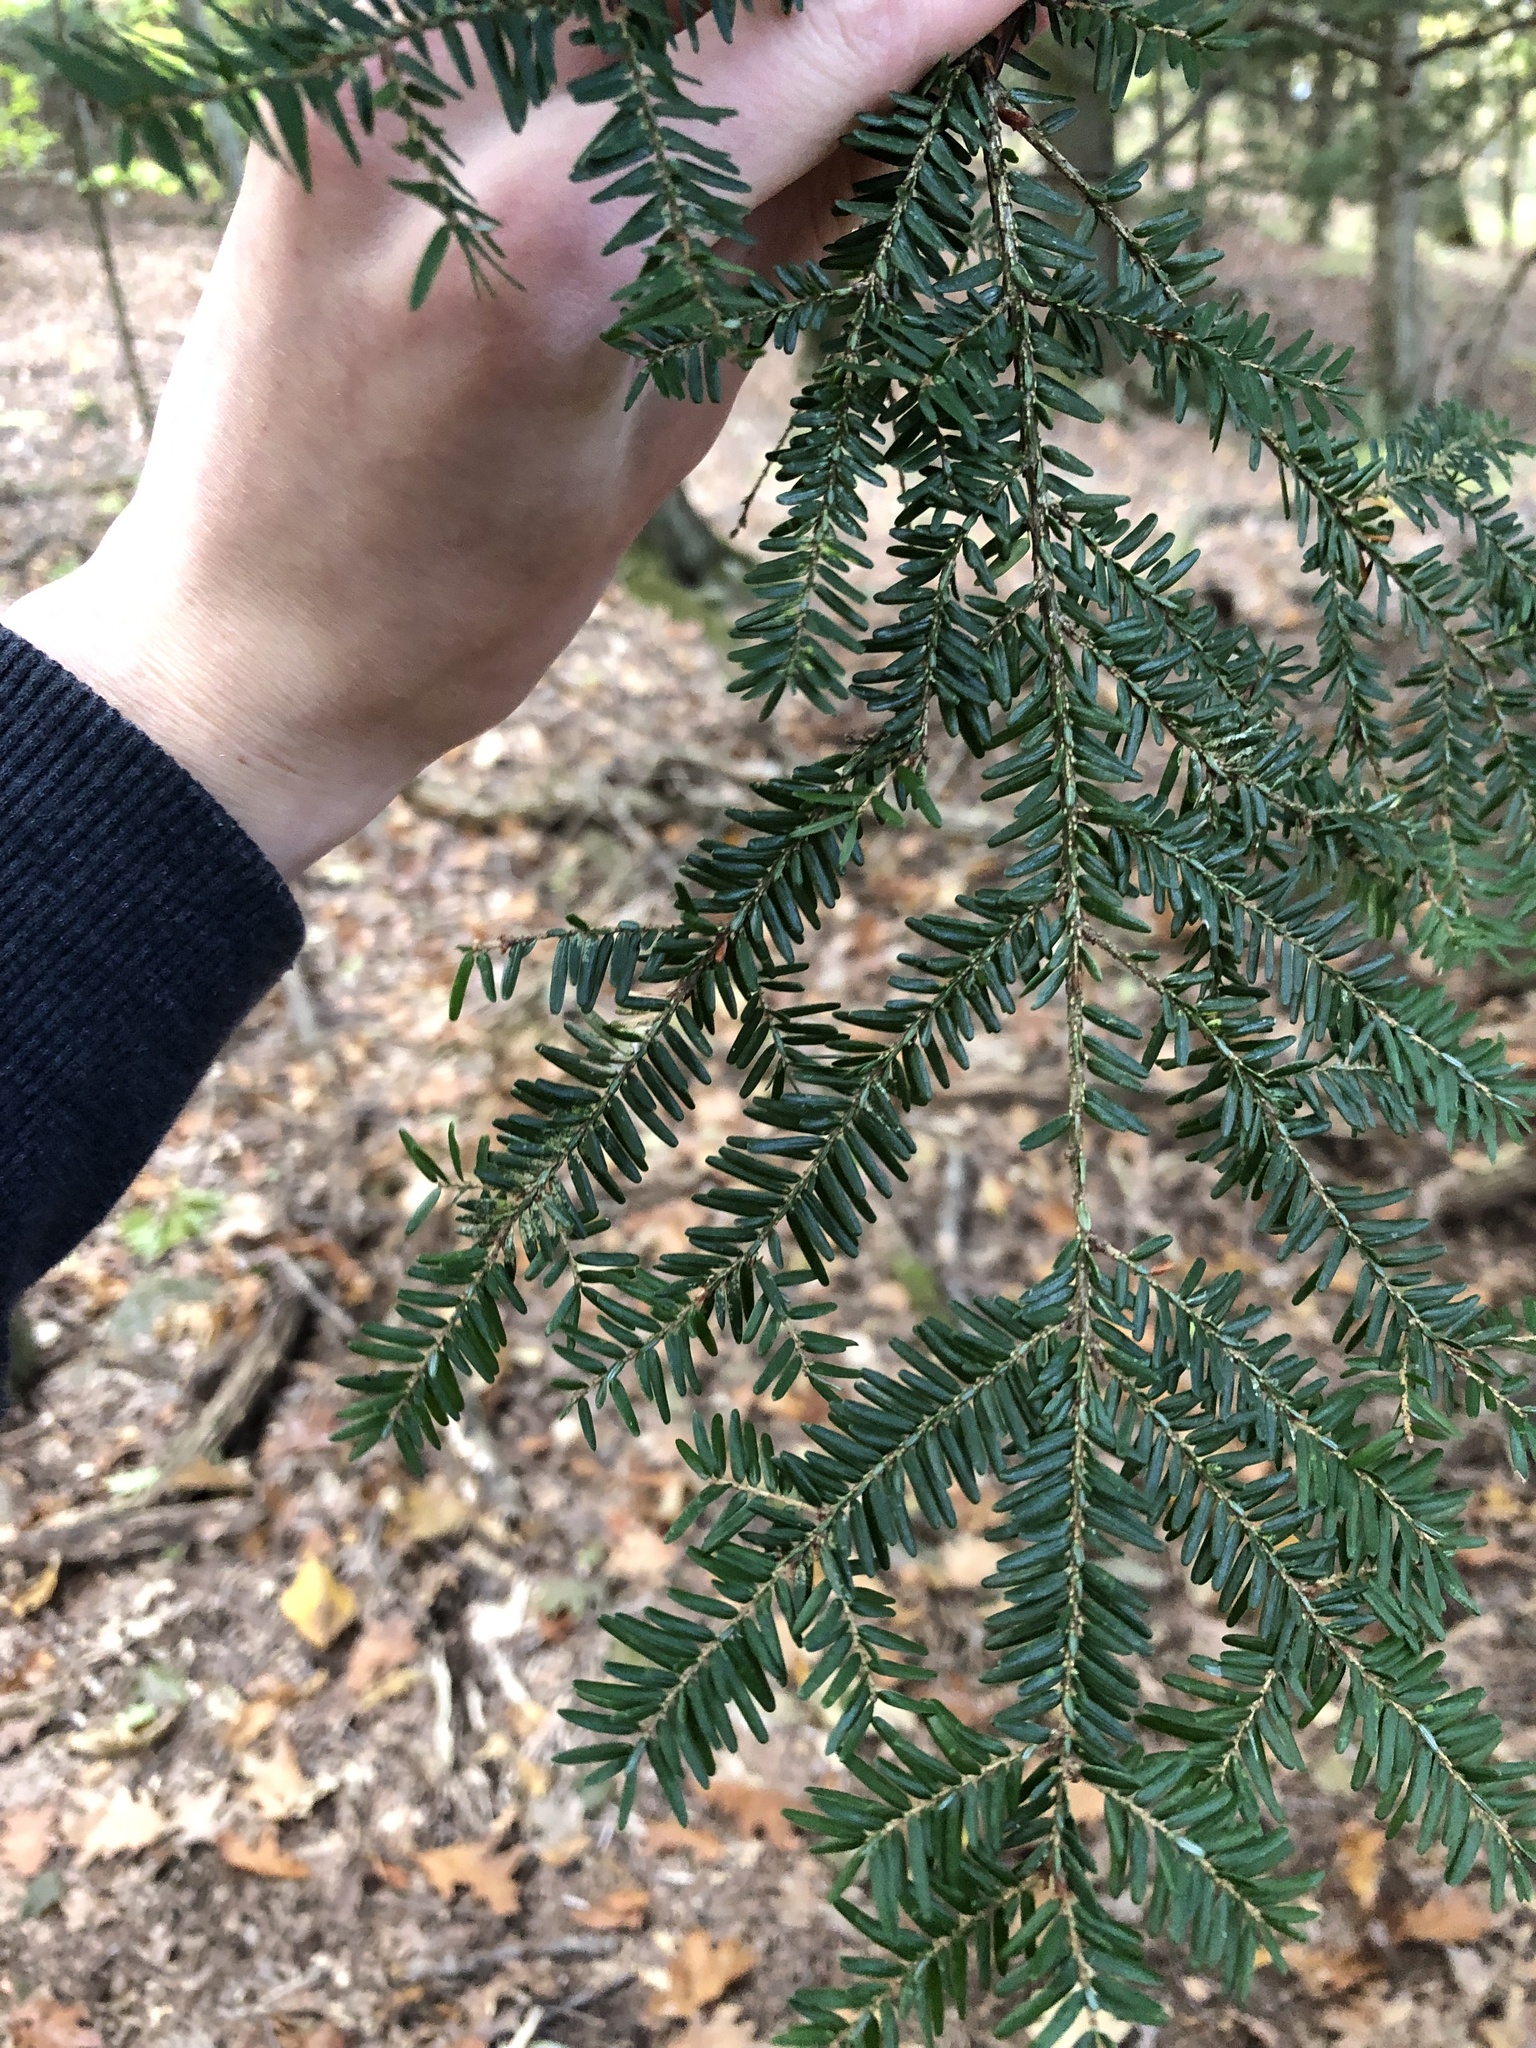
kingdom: Plantae
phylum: Tracheophyta
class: Pinopsida
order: Pinales
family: Pinaceae
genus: Tsuga
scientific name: Tsuga canadensis
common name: Eastern hemlock
